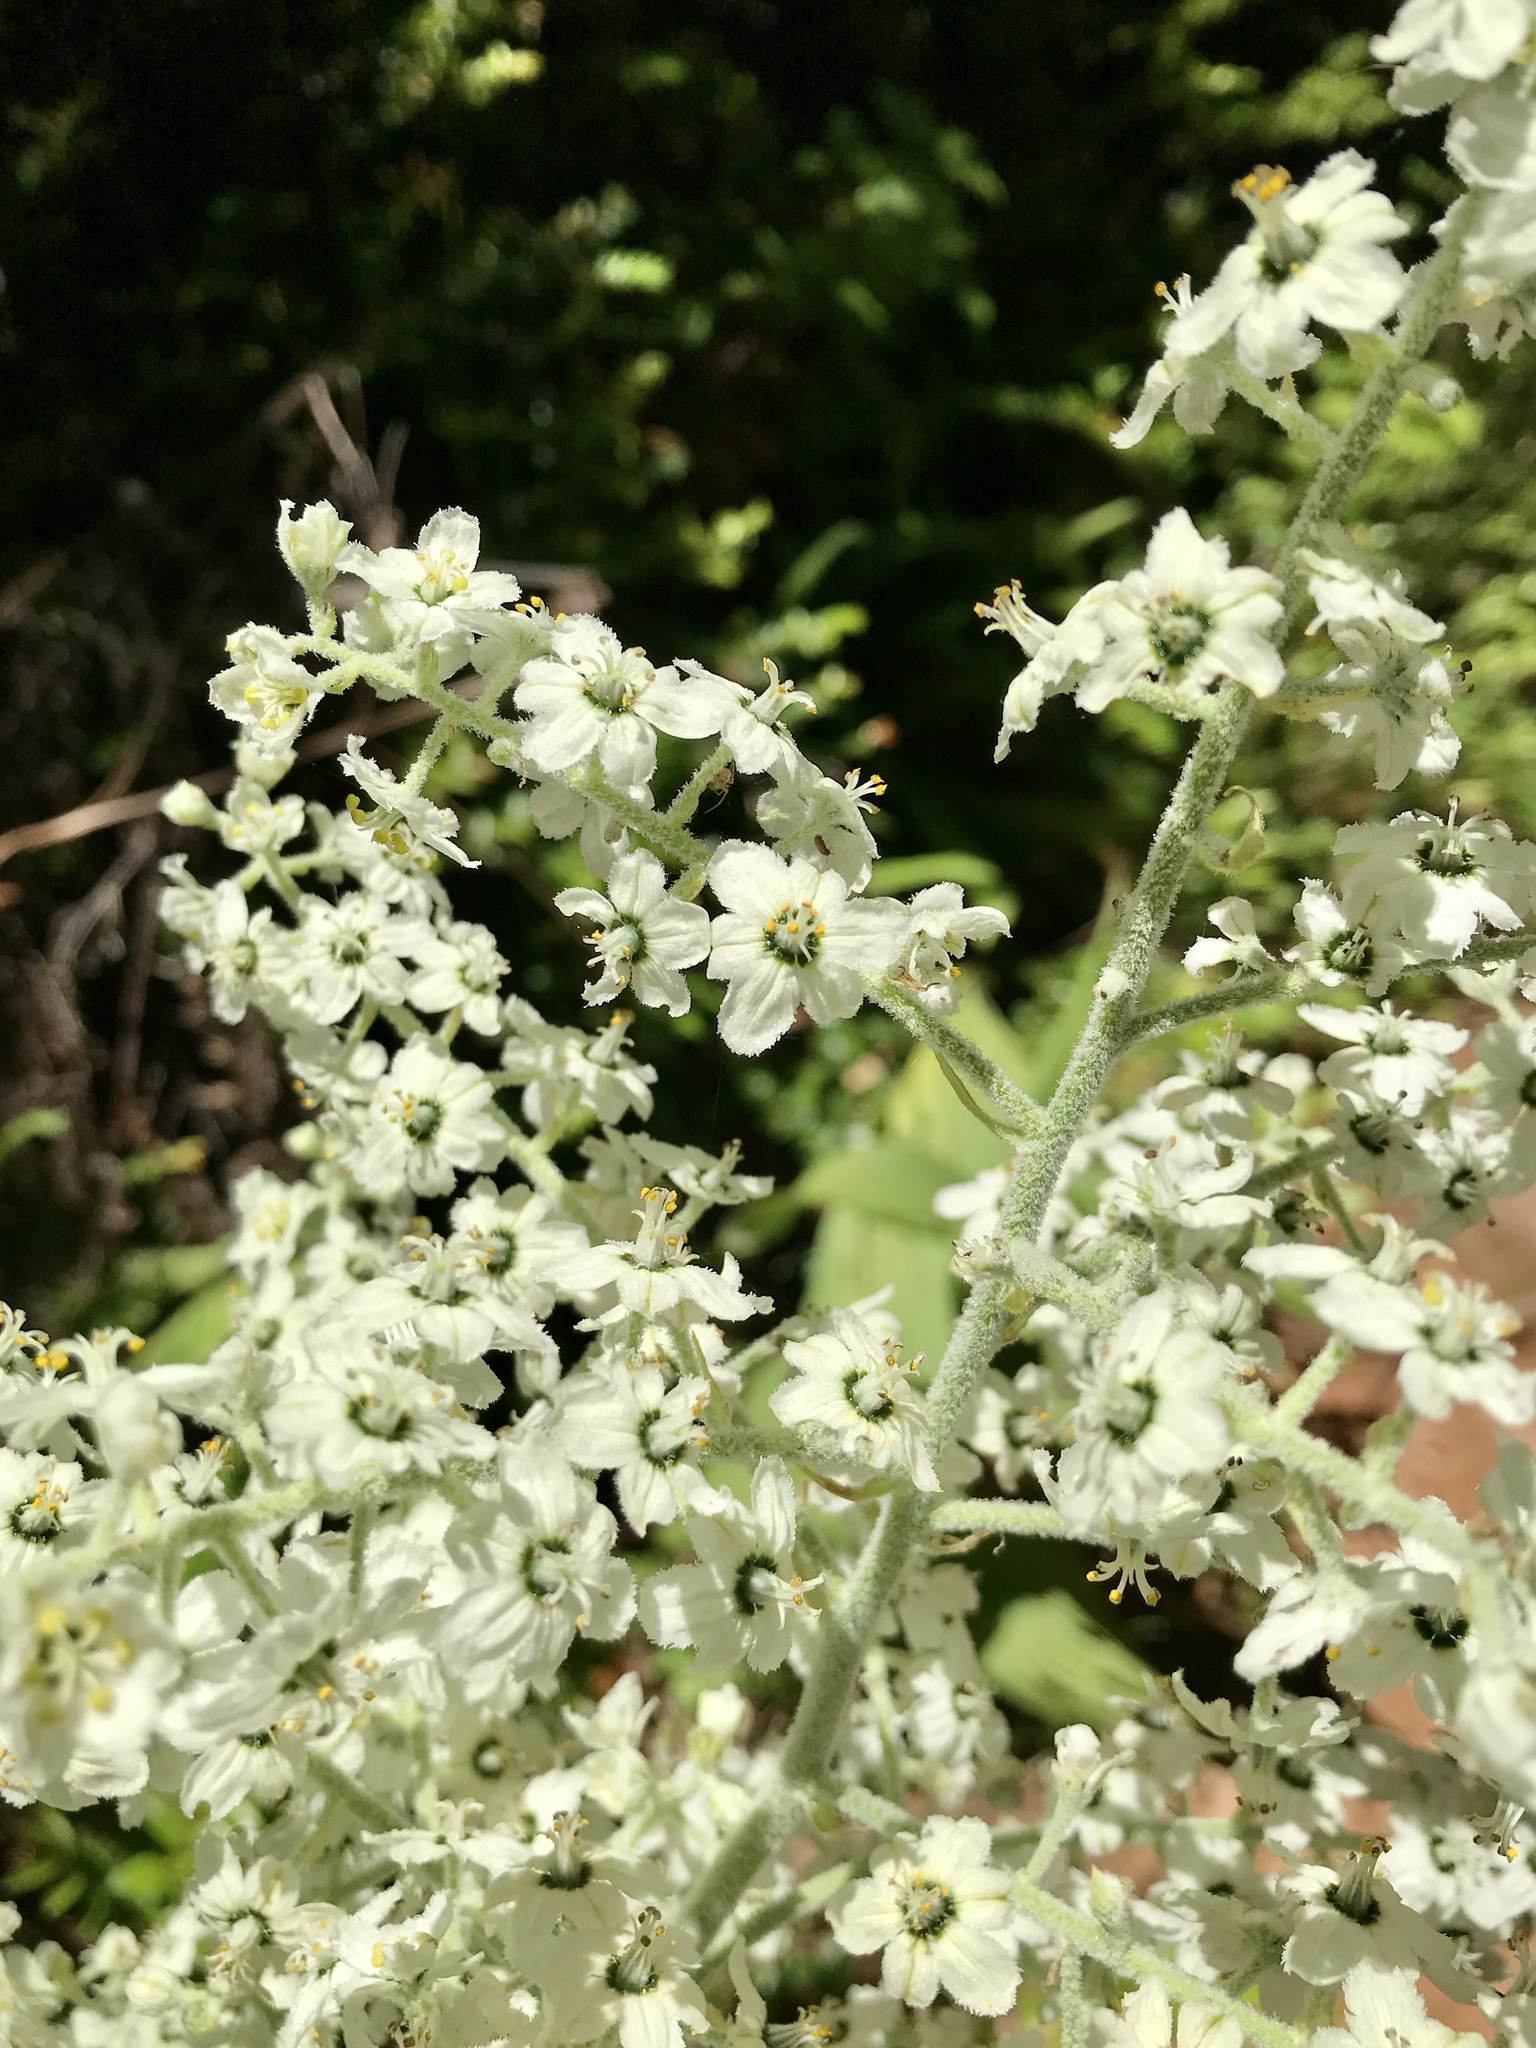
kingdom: Plantae
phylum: Tracheophyta
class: Liliopsida
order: Liliales
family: Melanthiaceae
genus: Veratrum
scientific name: Veratrum insolitum
